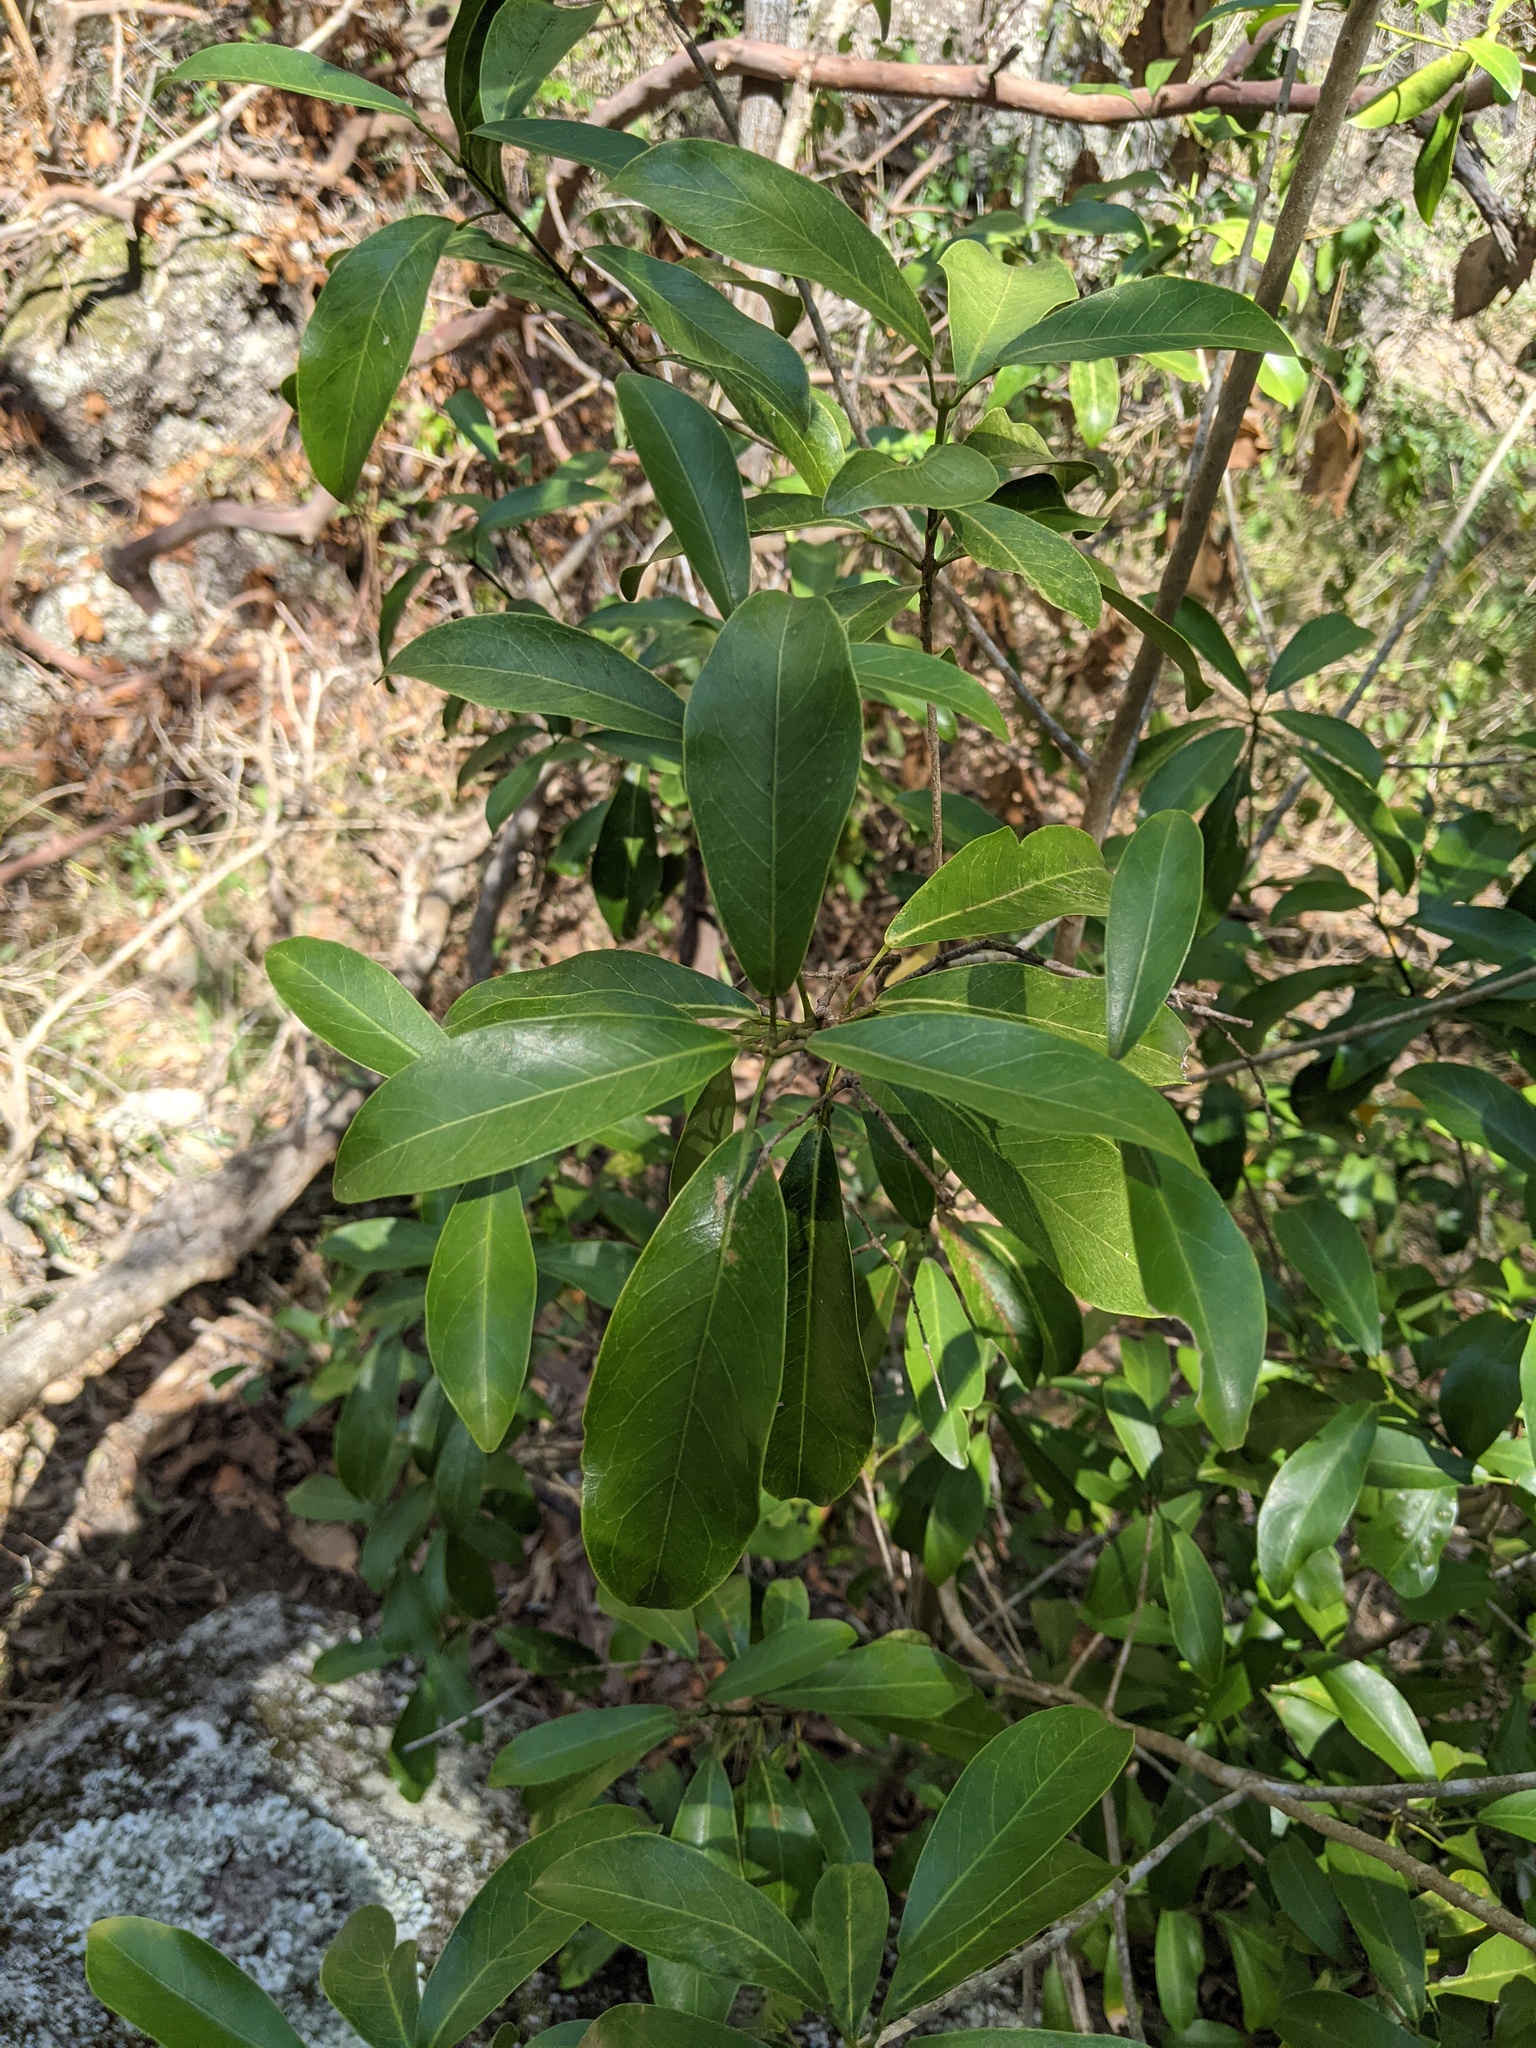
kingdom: Plantae
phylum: Tracheophyta
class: Magnoliopsida
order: Sapindales
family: Rutaceae
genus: Acronychia
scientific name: Acronychia laevis
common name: Hard aspen
